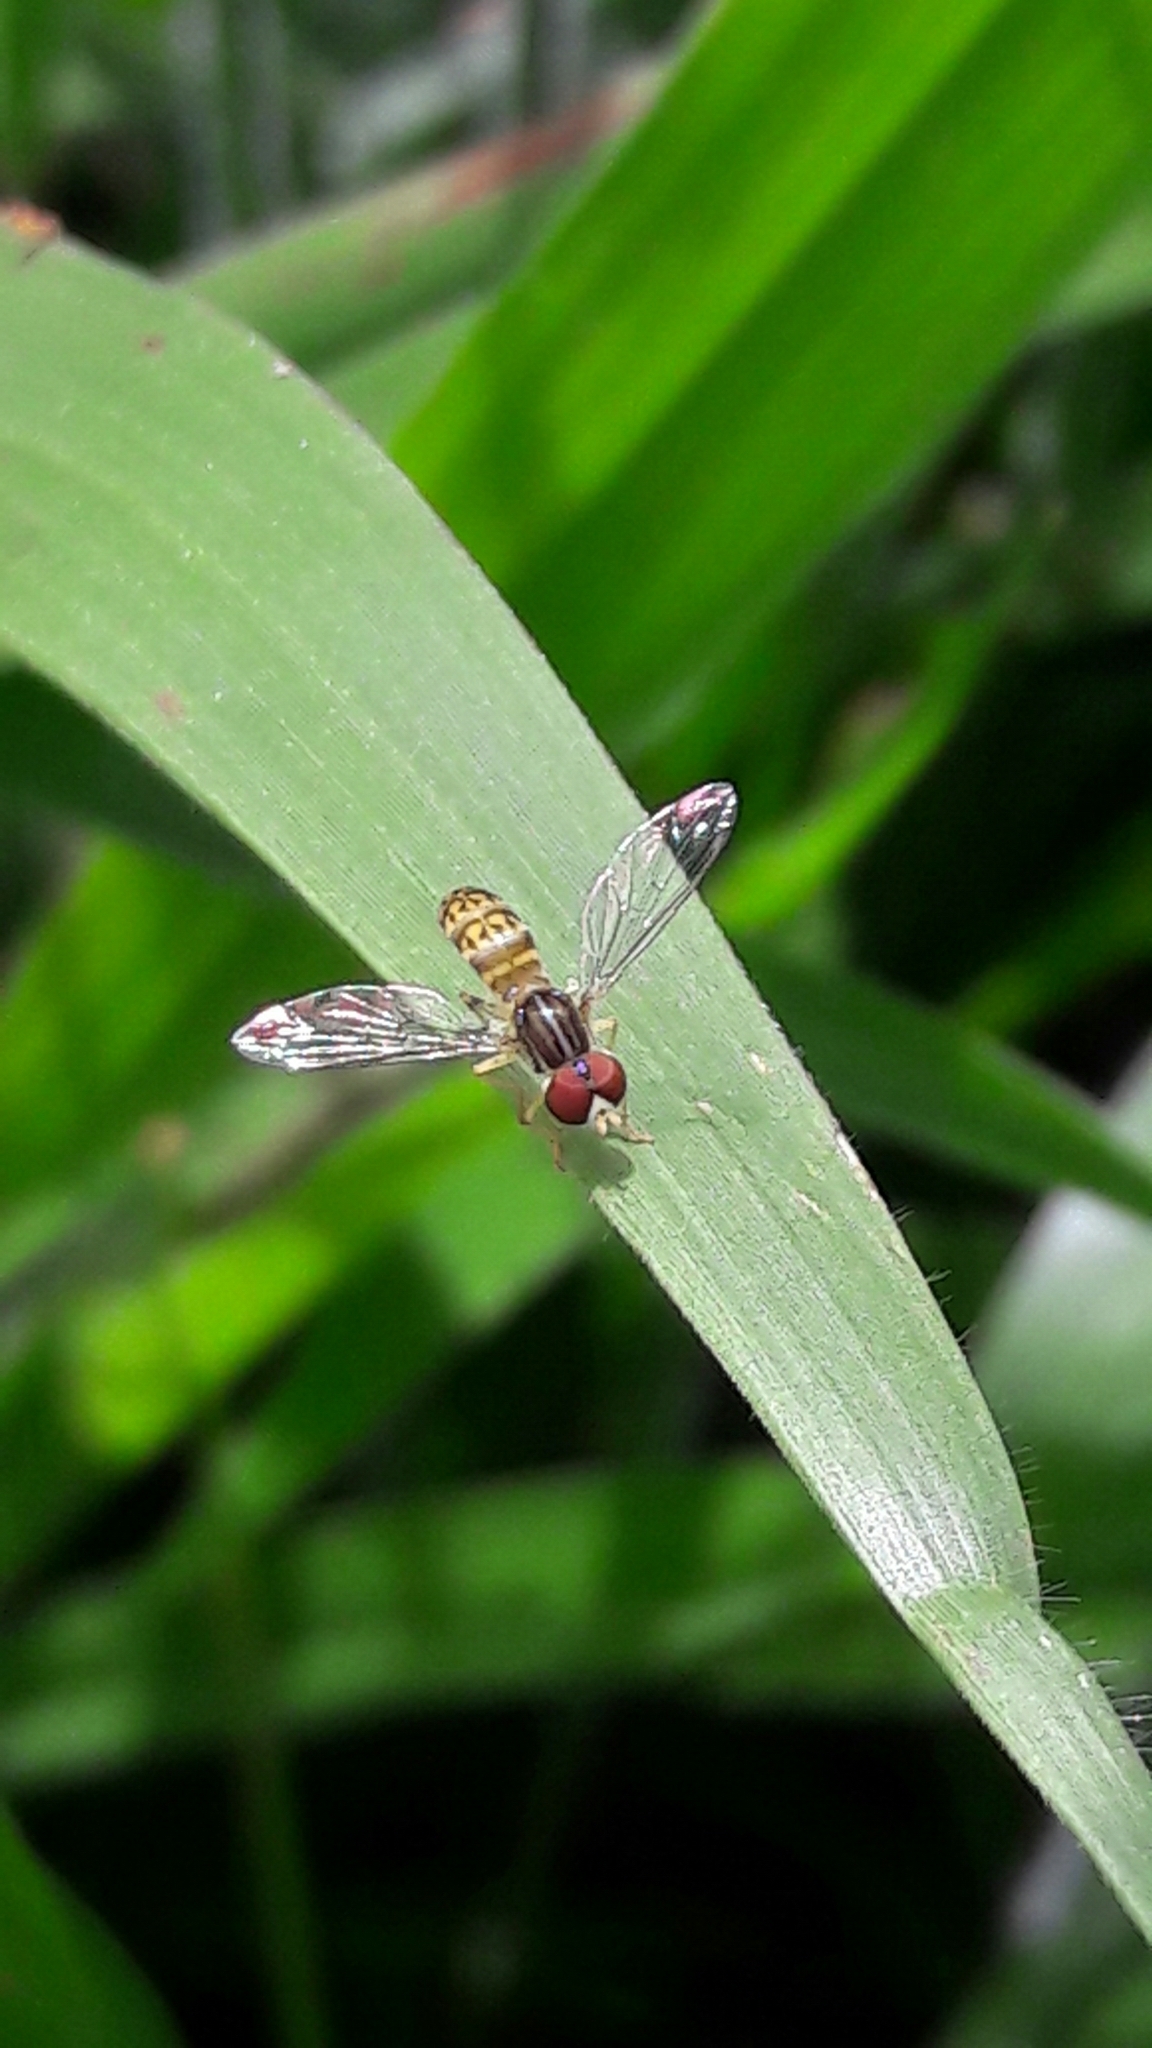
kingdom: Animalia
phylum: Arthropoda
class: Insecta
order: Diptera
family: Syrphidae
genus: Toxomerus
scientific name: Toxomerus
